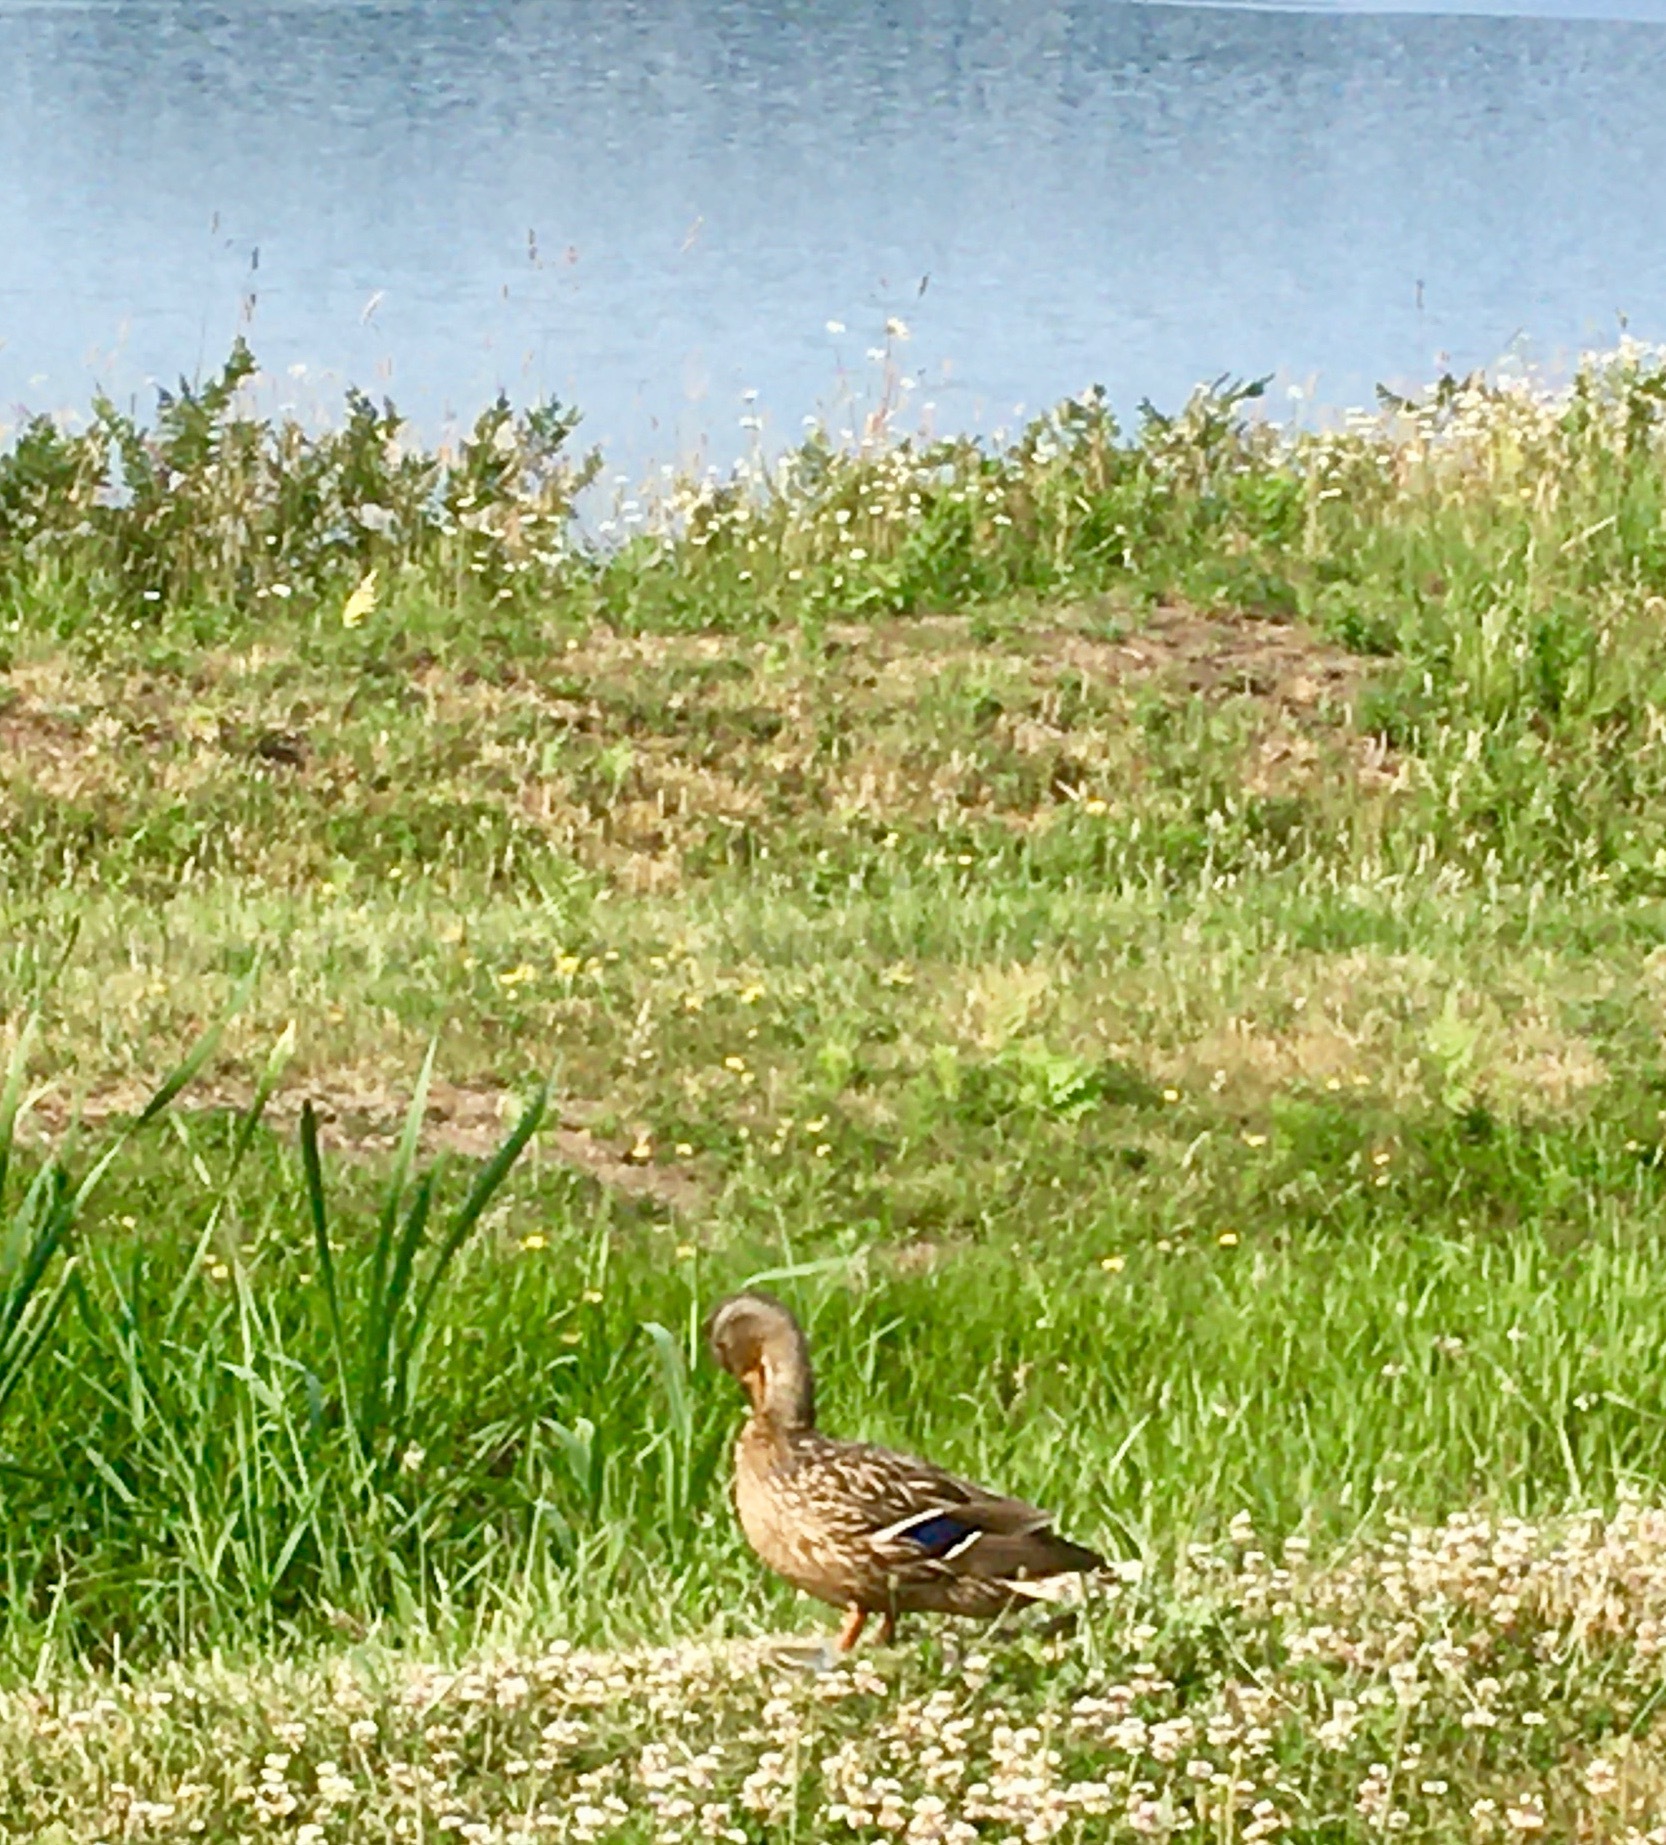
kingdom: Animalia
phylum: Chordata
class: Aves
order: Anseriformes
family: Anatidae
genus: Anas
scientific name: Anas platyrhynchos
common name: Mallard
